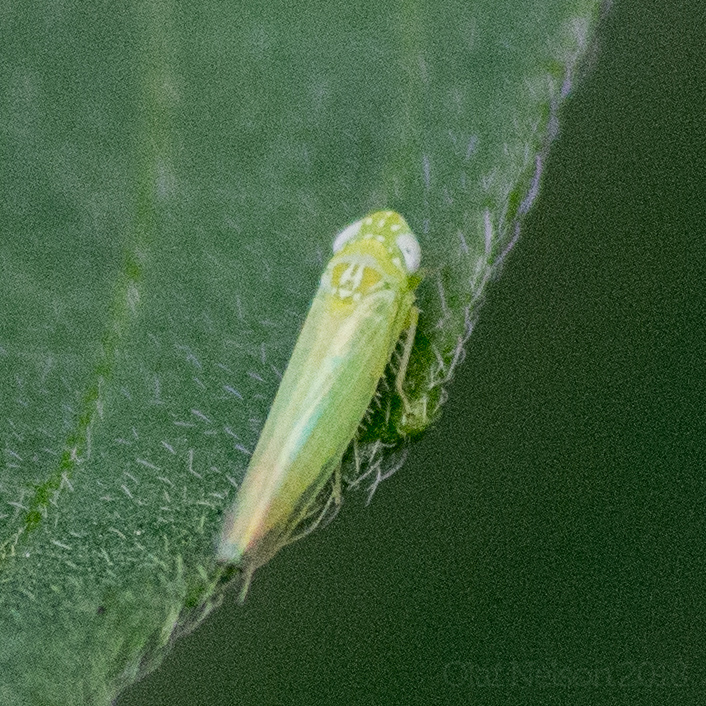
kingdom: Animalia
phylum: Arthropoda
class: Insecta
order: Hemiptera
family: Cicadellidae
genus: Empoasca
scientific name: Empoasca fabae
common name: Potato leafhopper
